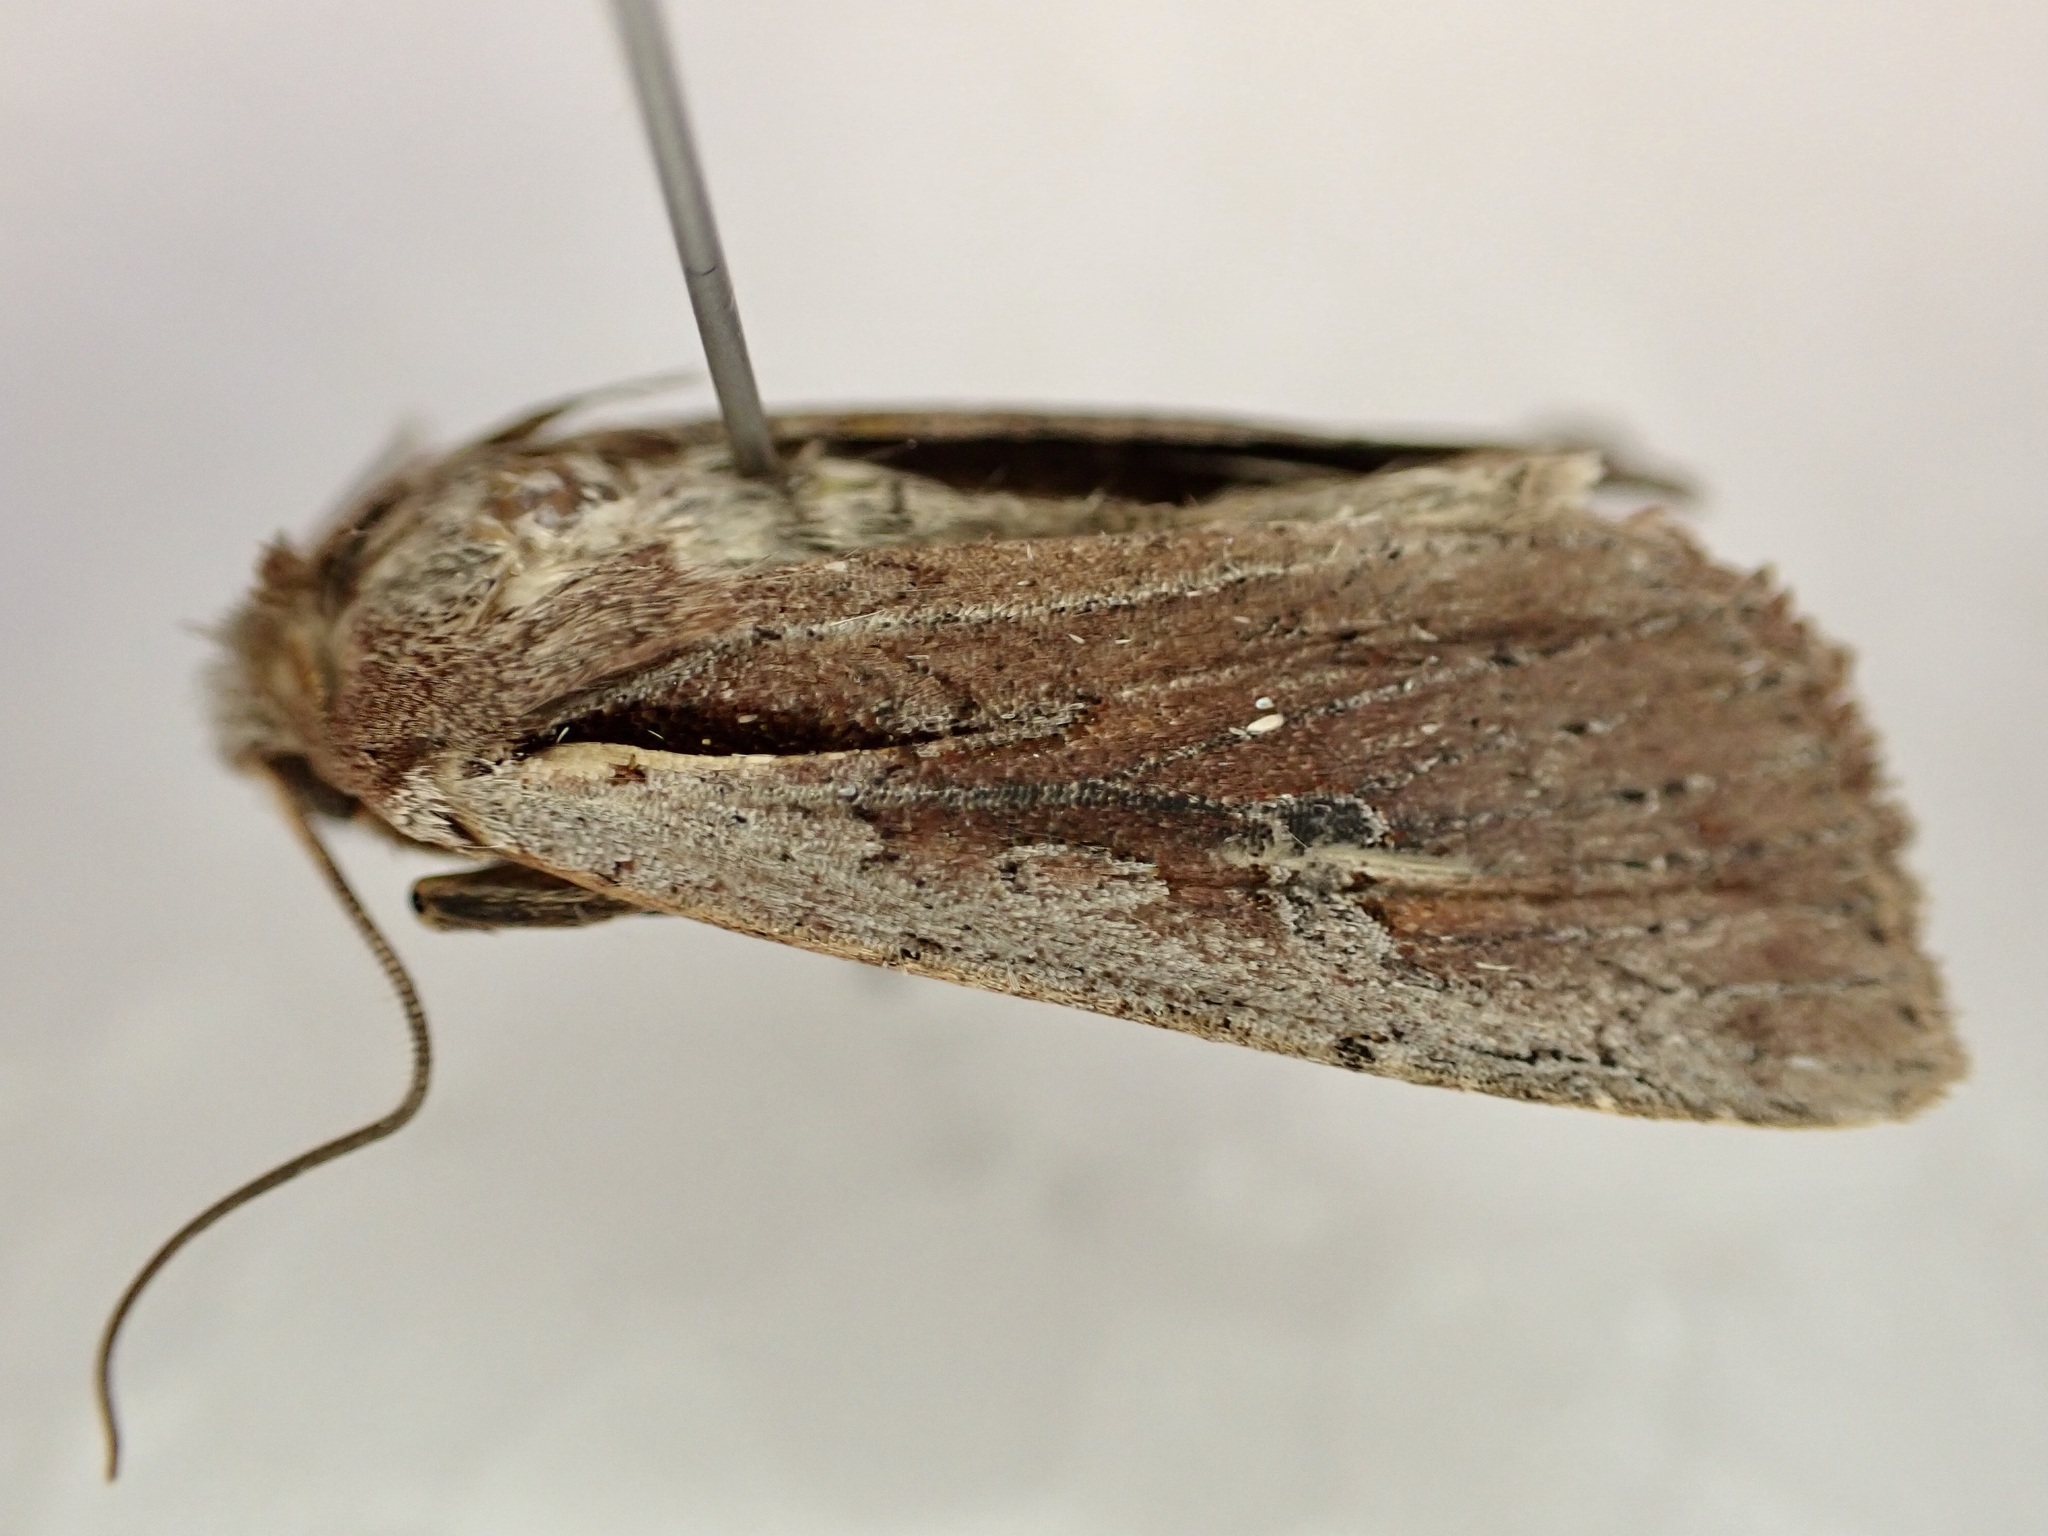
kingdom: Animalia
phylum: Arthropoda
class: Insecta
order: Lepidoptera
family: Noctuidae
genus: Ichneutica
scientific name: Ichneutica atristriga
